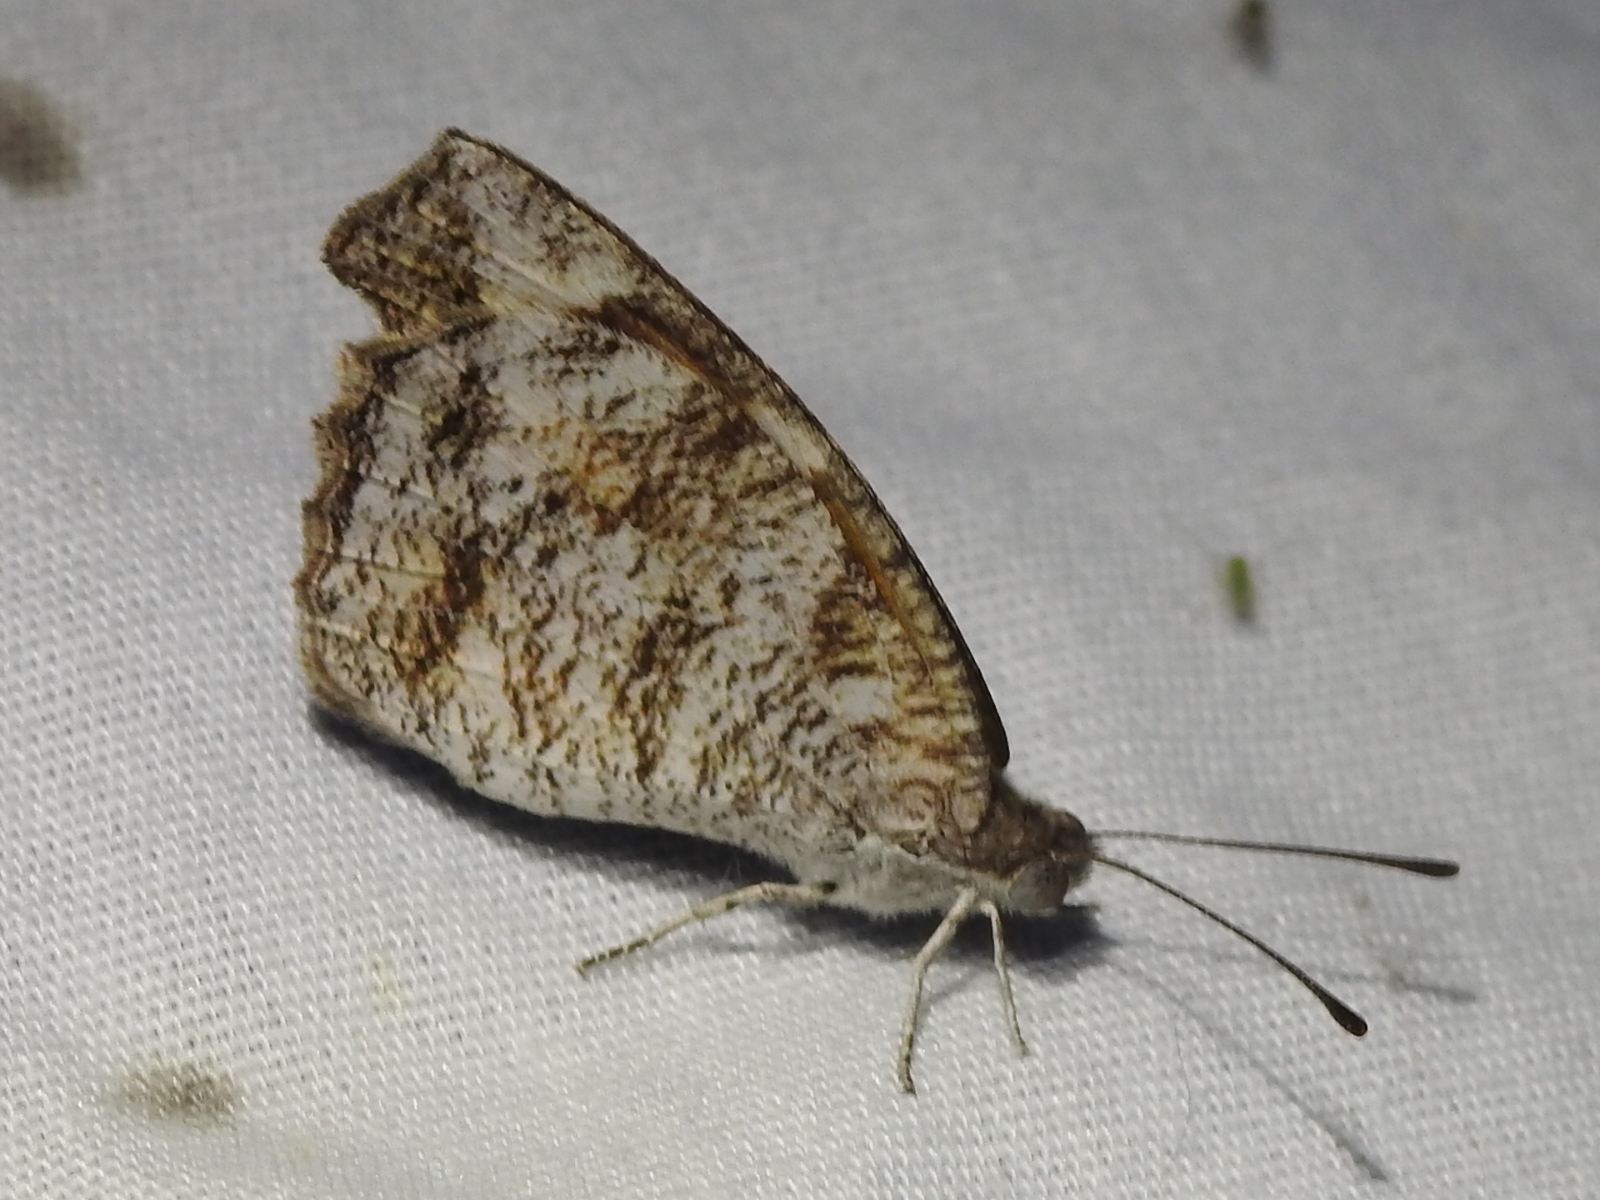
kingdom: Animalia
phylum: Arthropoda
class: Insecta
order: Lepidoptera
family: Nymphalidae
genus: Libytheana
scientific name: Libytheana carinenta
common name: American snout
